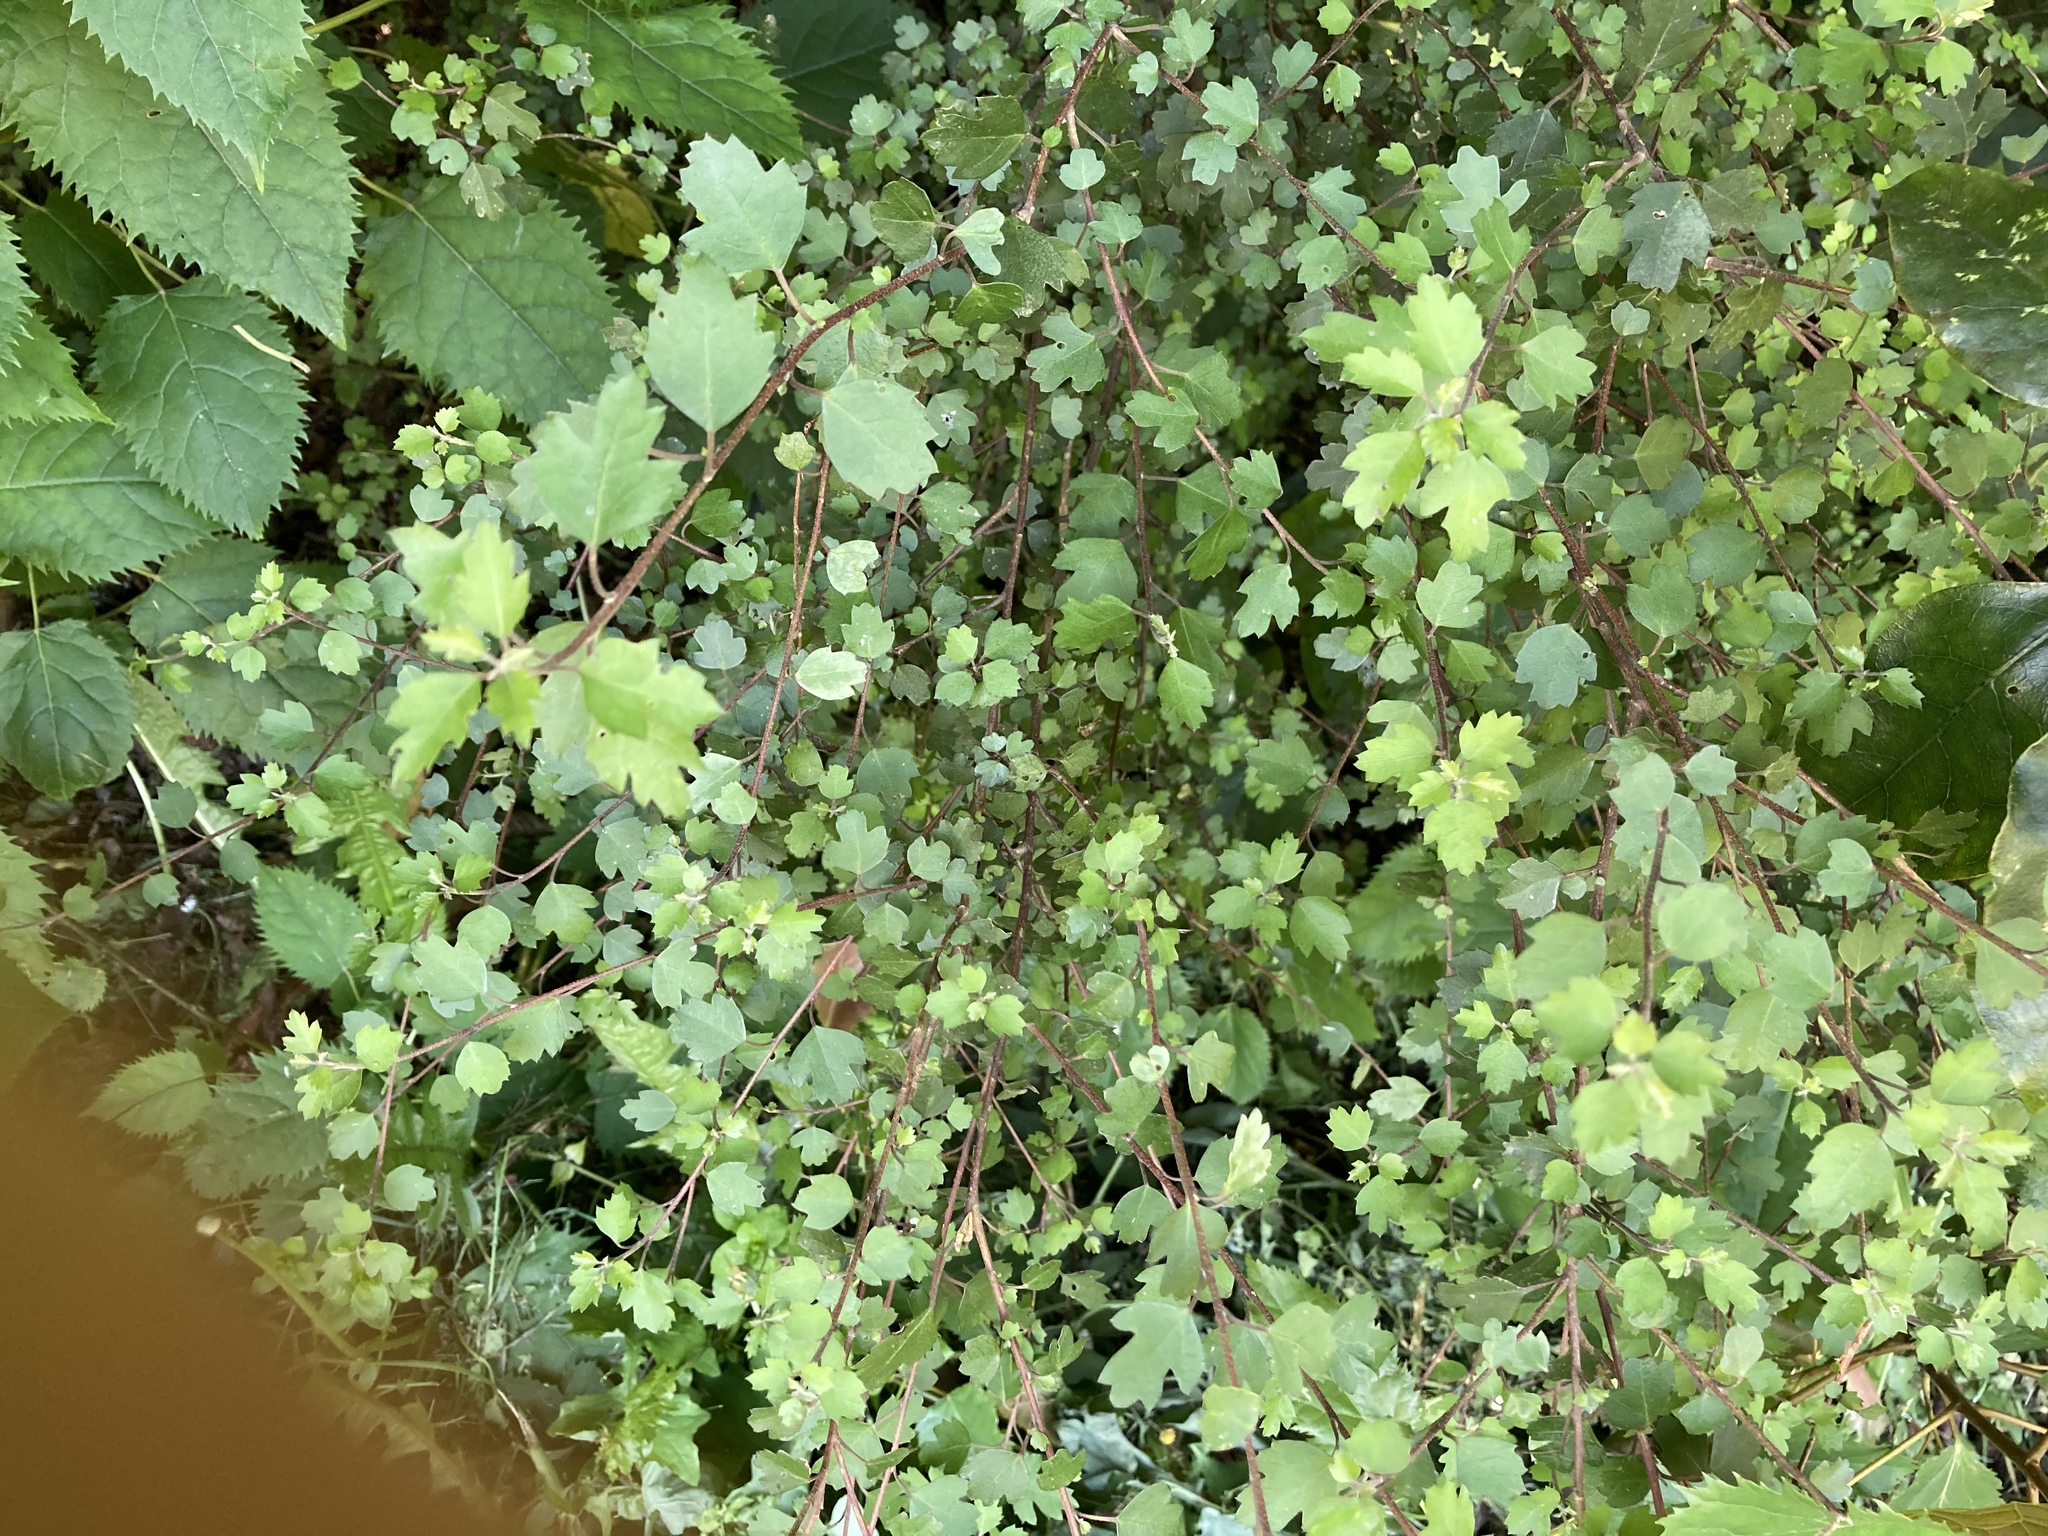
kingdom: Plantae
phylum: Tracheophyta
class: Magnoliopsida
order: Malvales
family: Malvaceae
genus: Plagianthus
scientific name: Plagianthus regius
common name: Manatu
